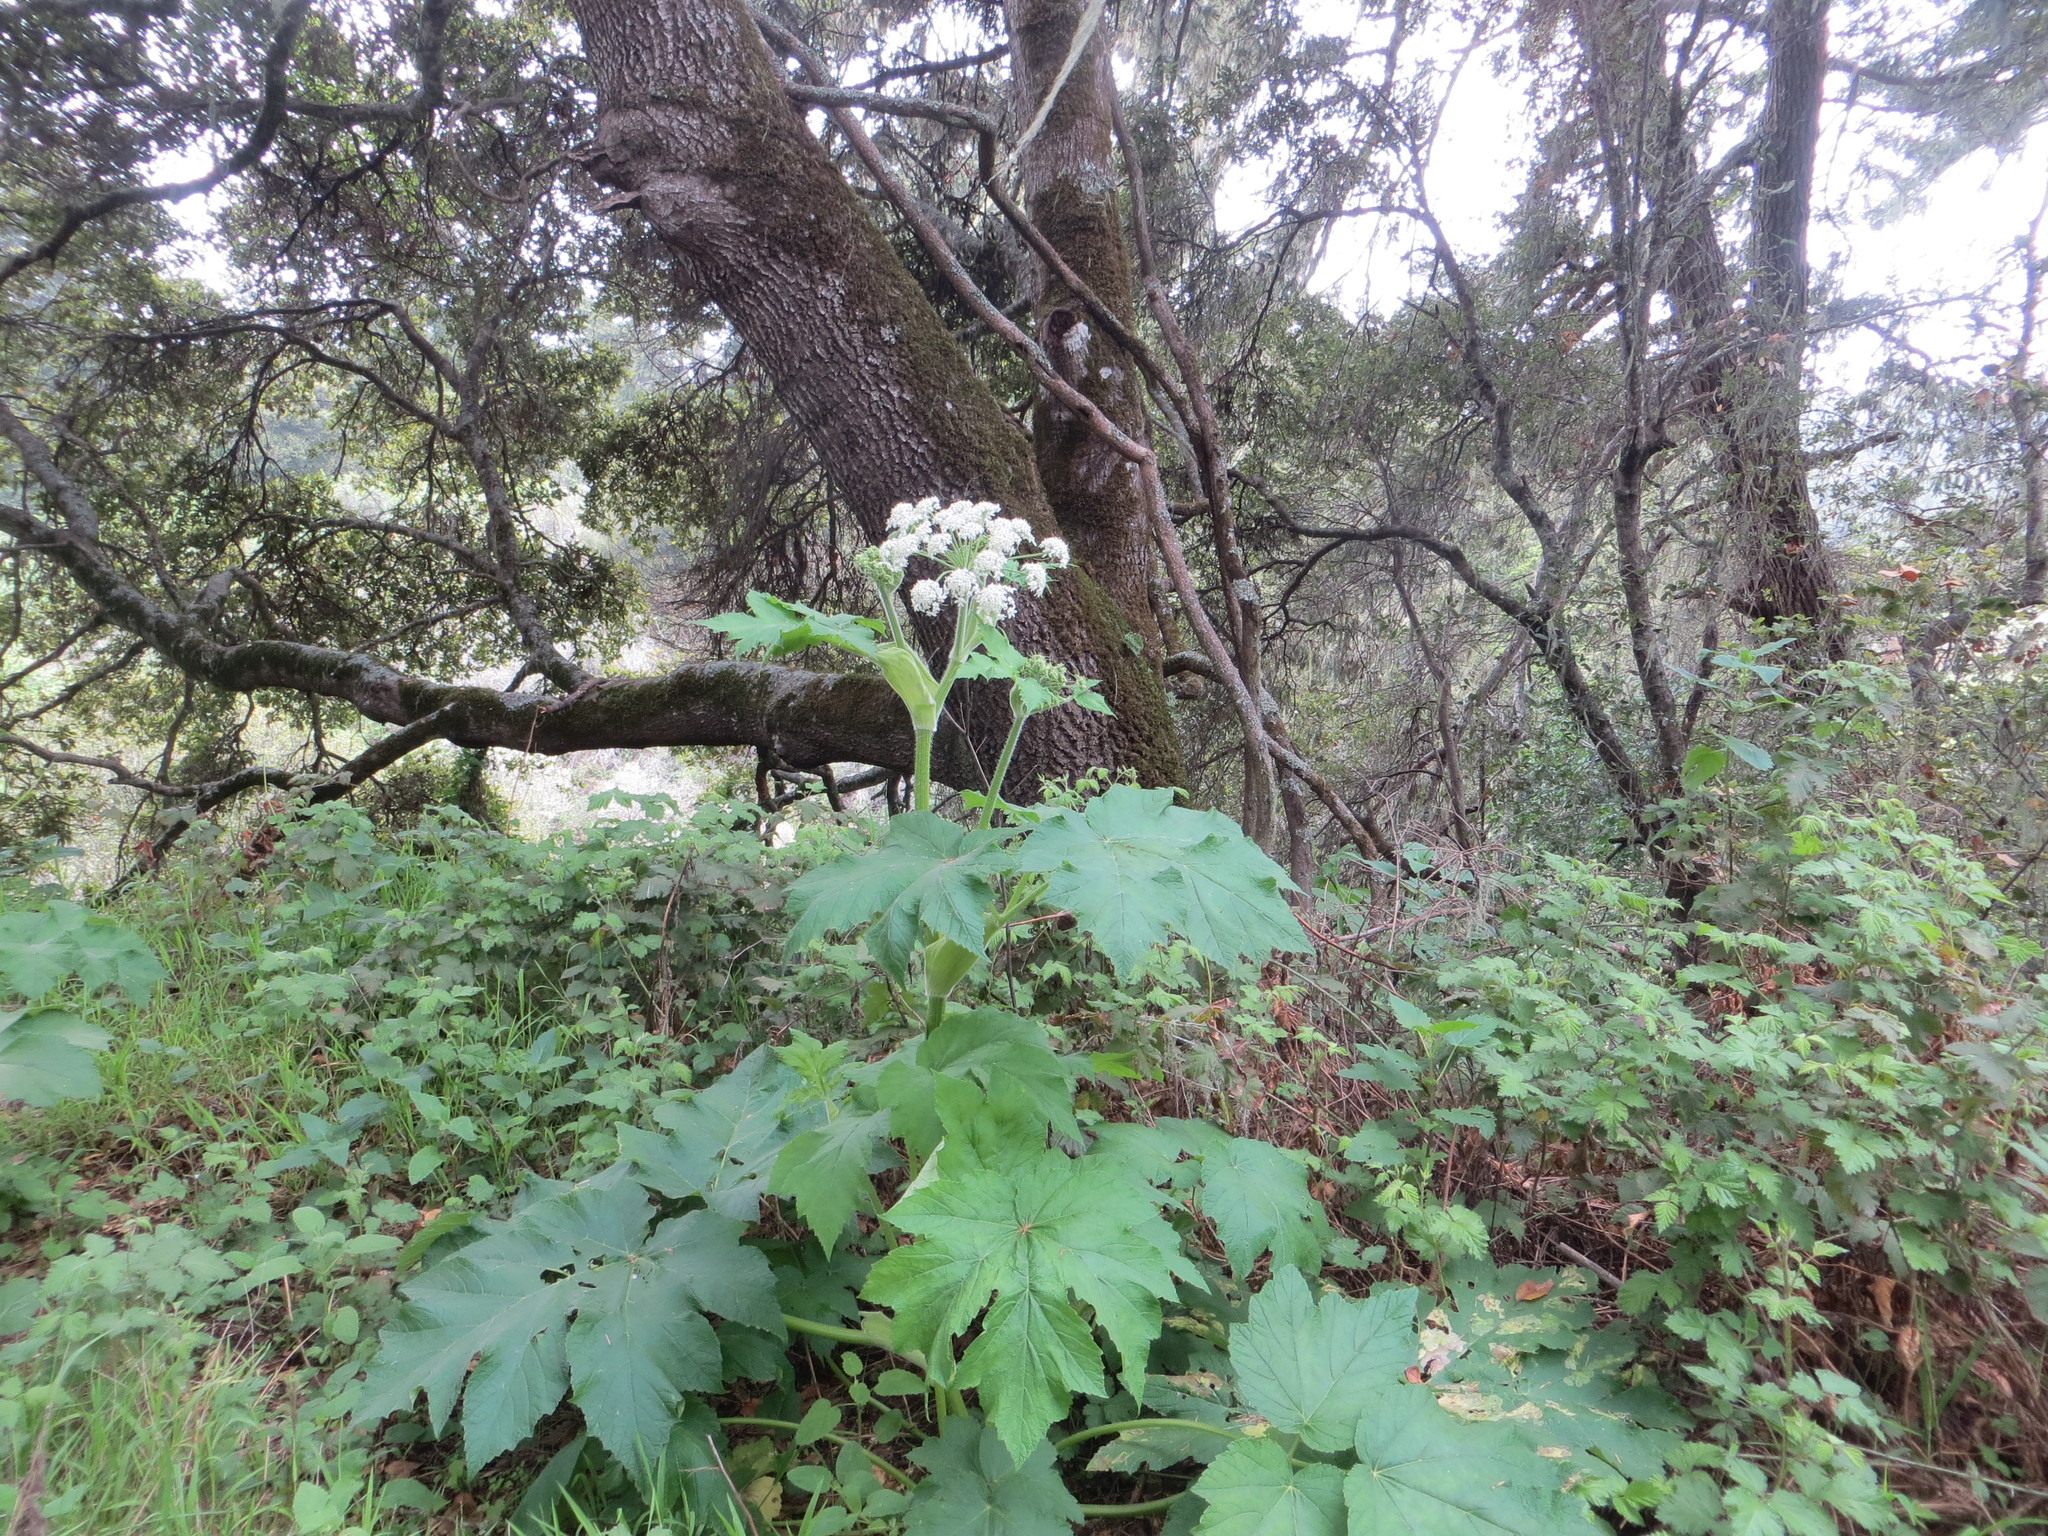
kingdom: Plantae
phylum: Tracheophyta
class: Magnoliopsida
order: Apiales
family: Apiaceae
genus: Heracleum
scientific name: Heracleum maximum
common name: American cow parsnip
